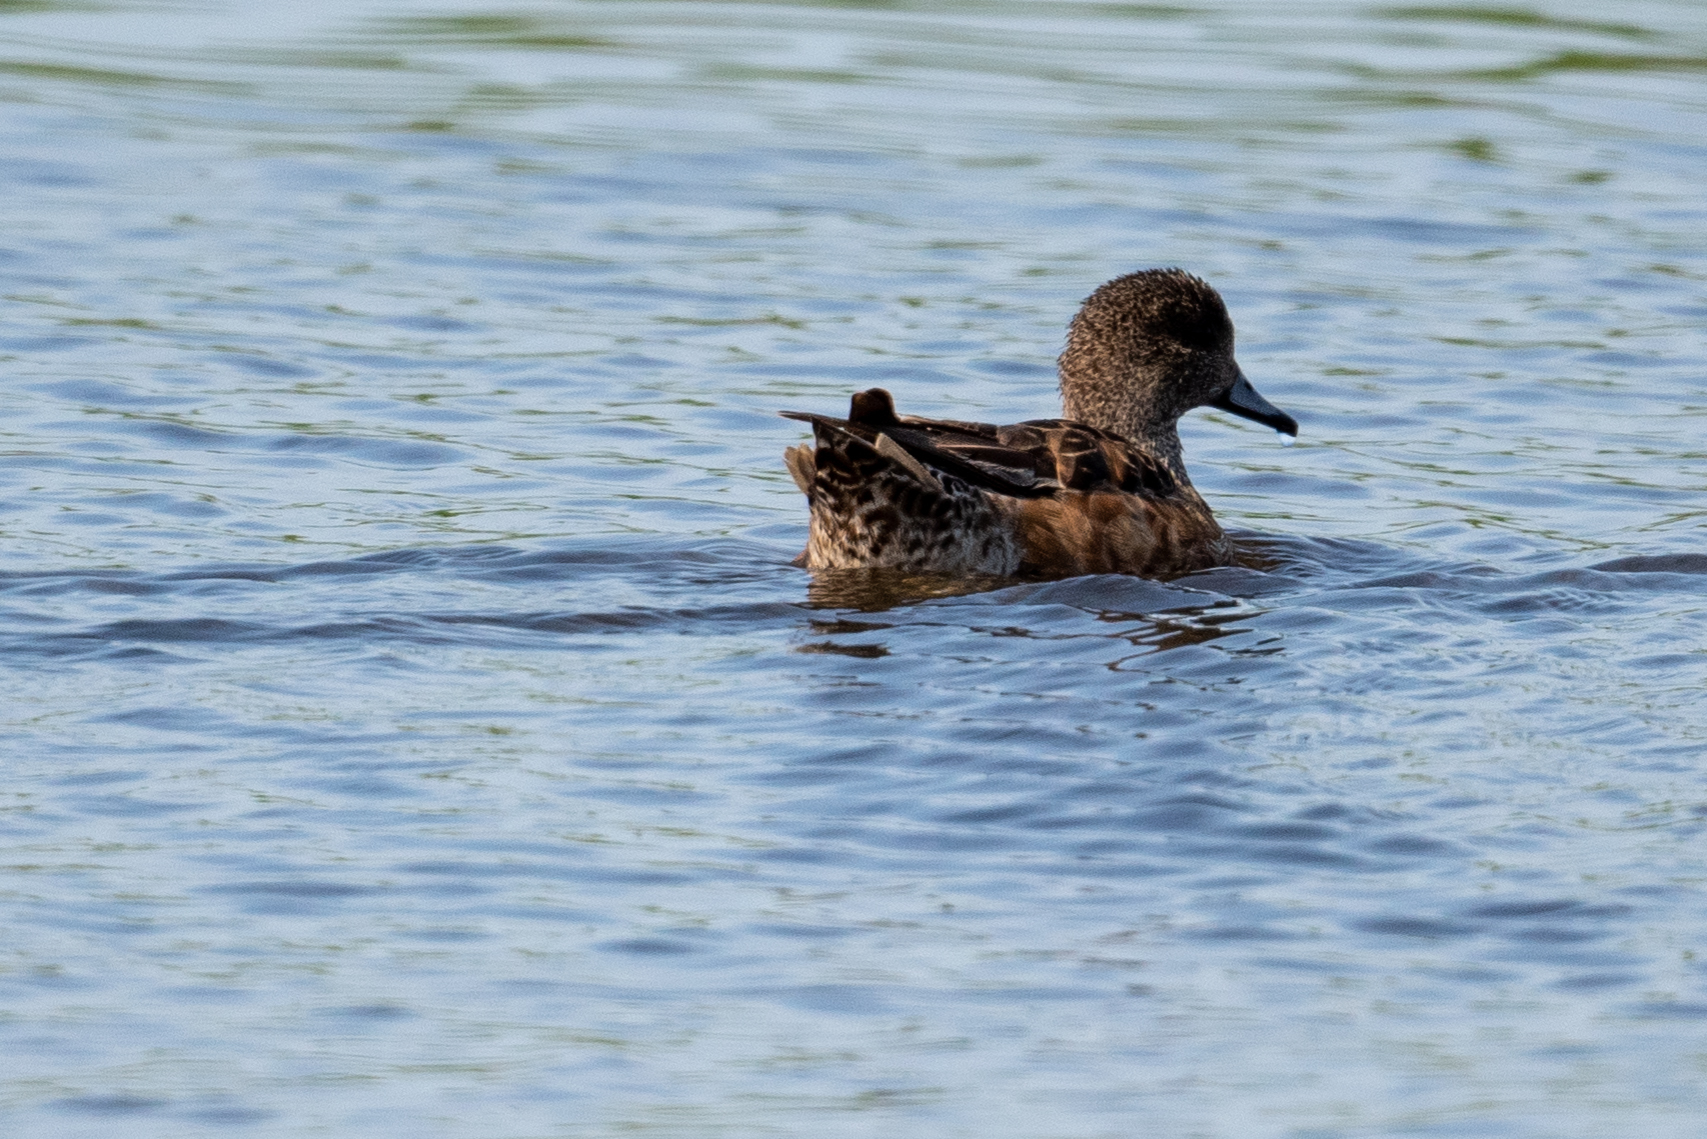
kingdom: Animalia
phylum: Chordata
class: Aves
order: Anseriformes
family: Anatidae
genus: Mareca
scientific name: Mareca americana
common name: American wigeon
